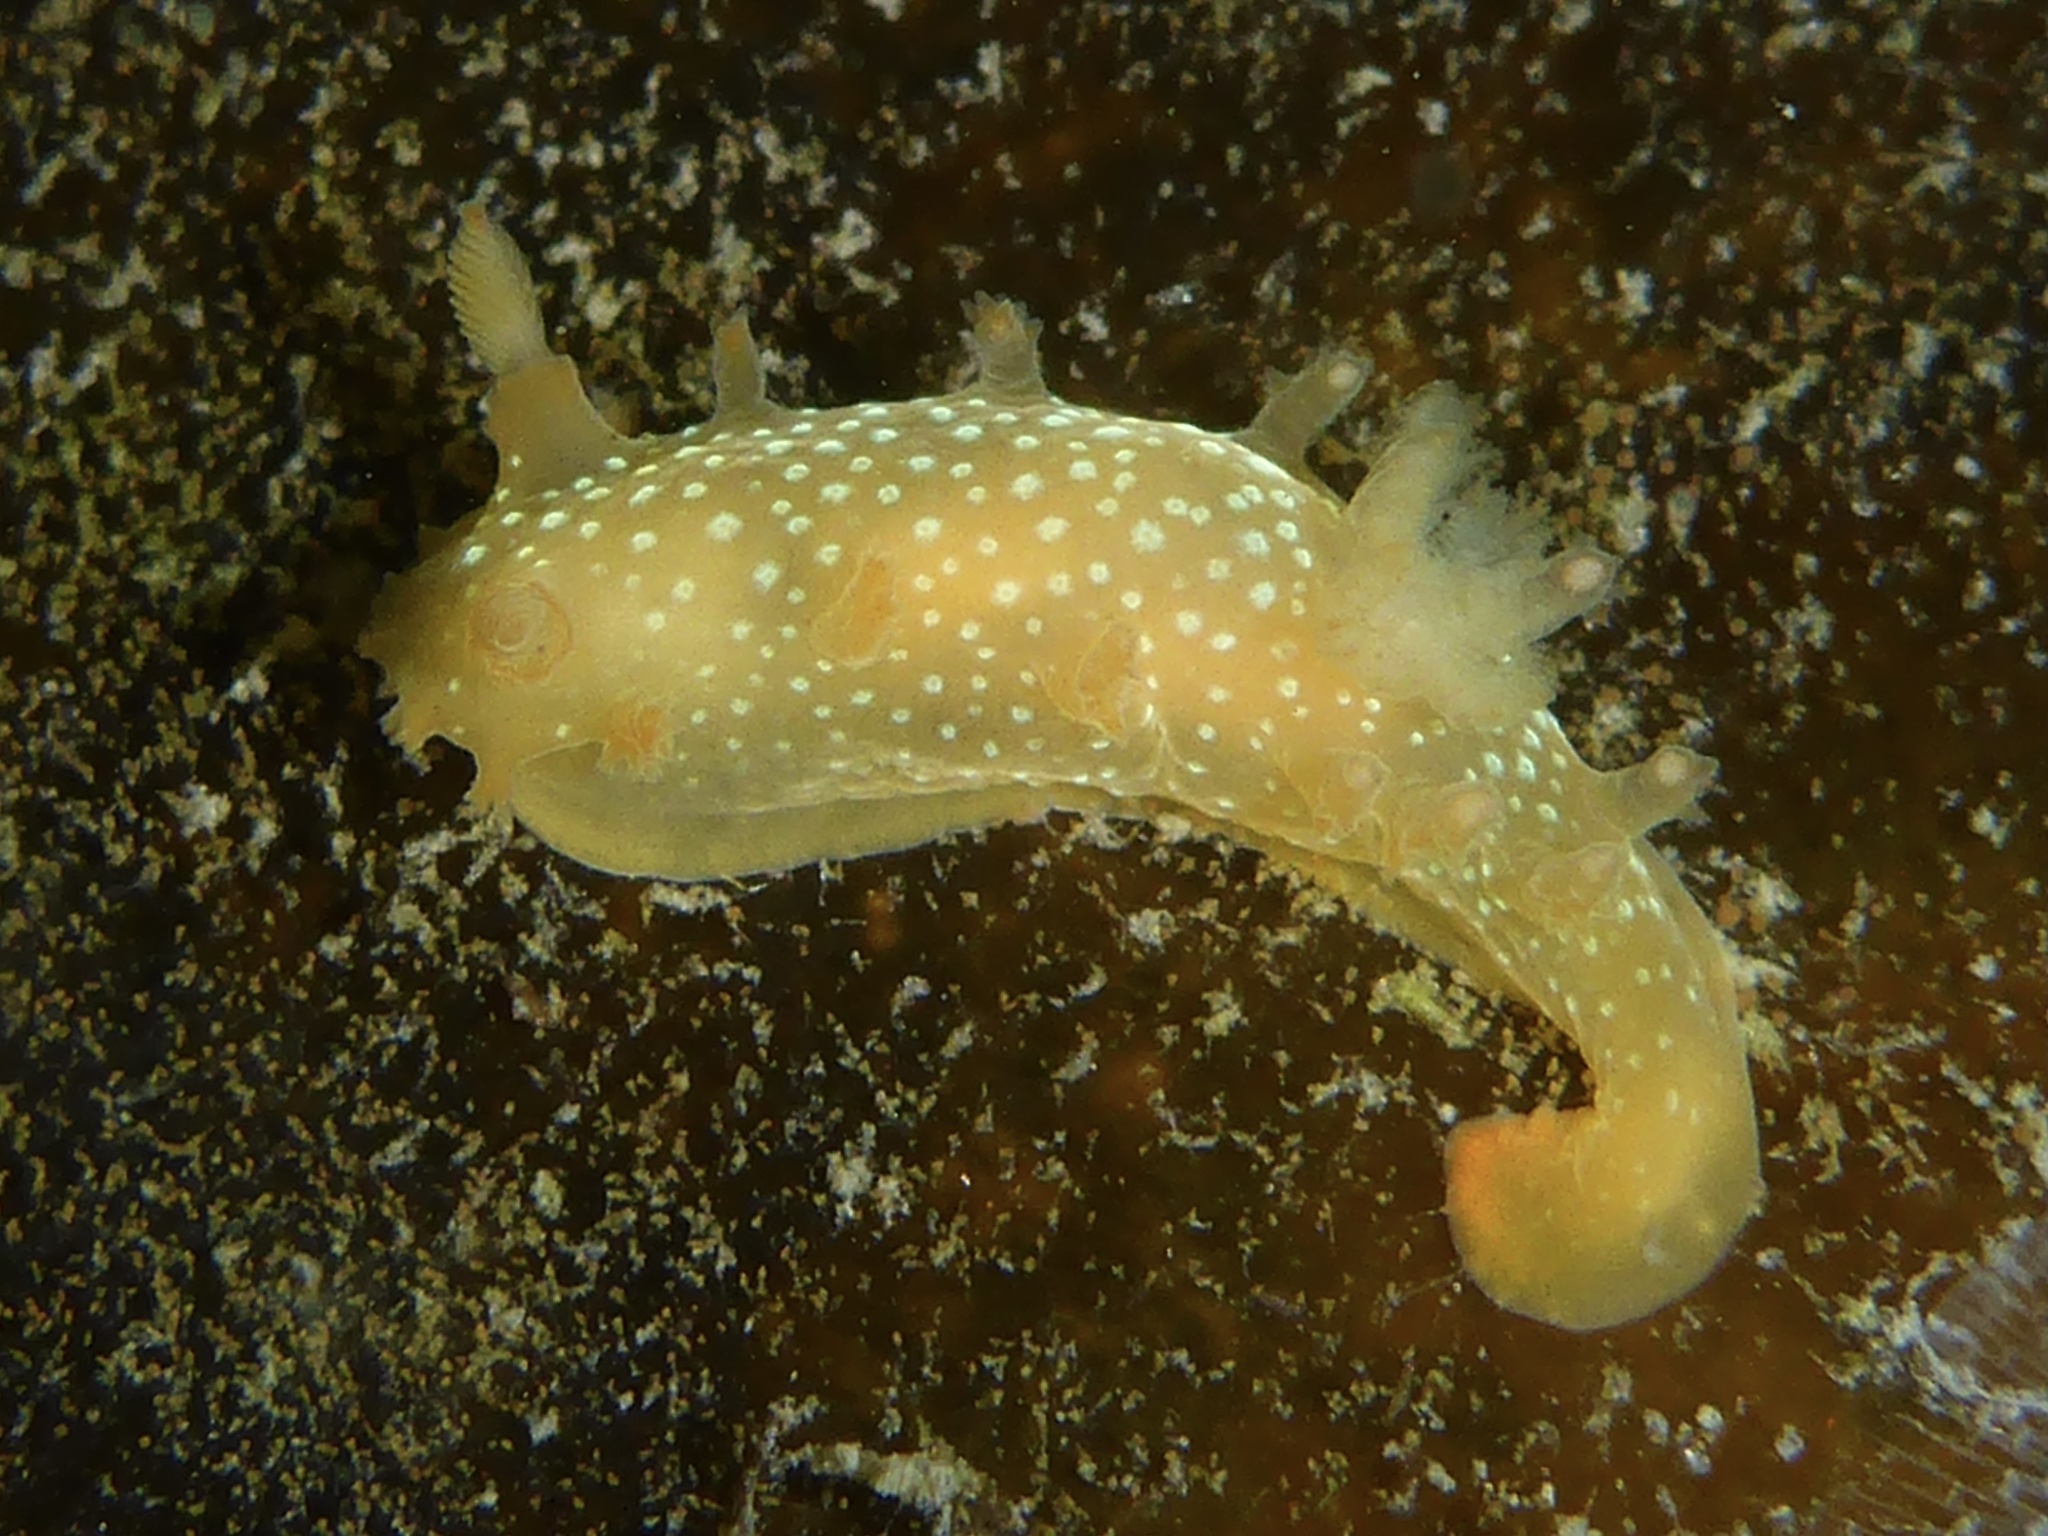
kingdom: Animalia
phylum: Mollusca
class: Gastropoda
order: Nudibranchia
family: Polyceridae
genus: Triopha
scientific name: Triopha maculata
